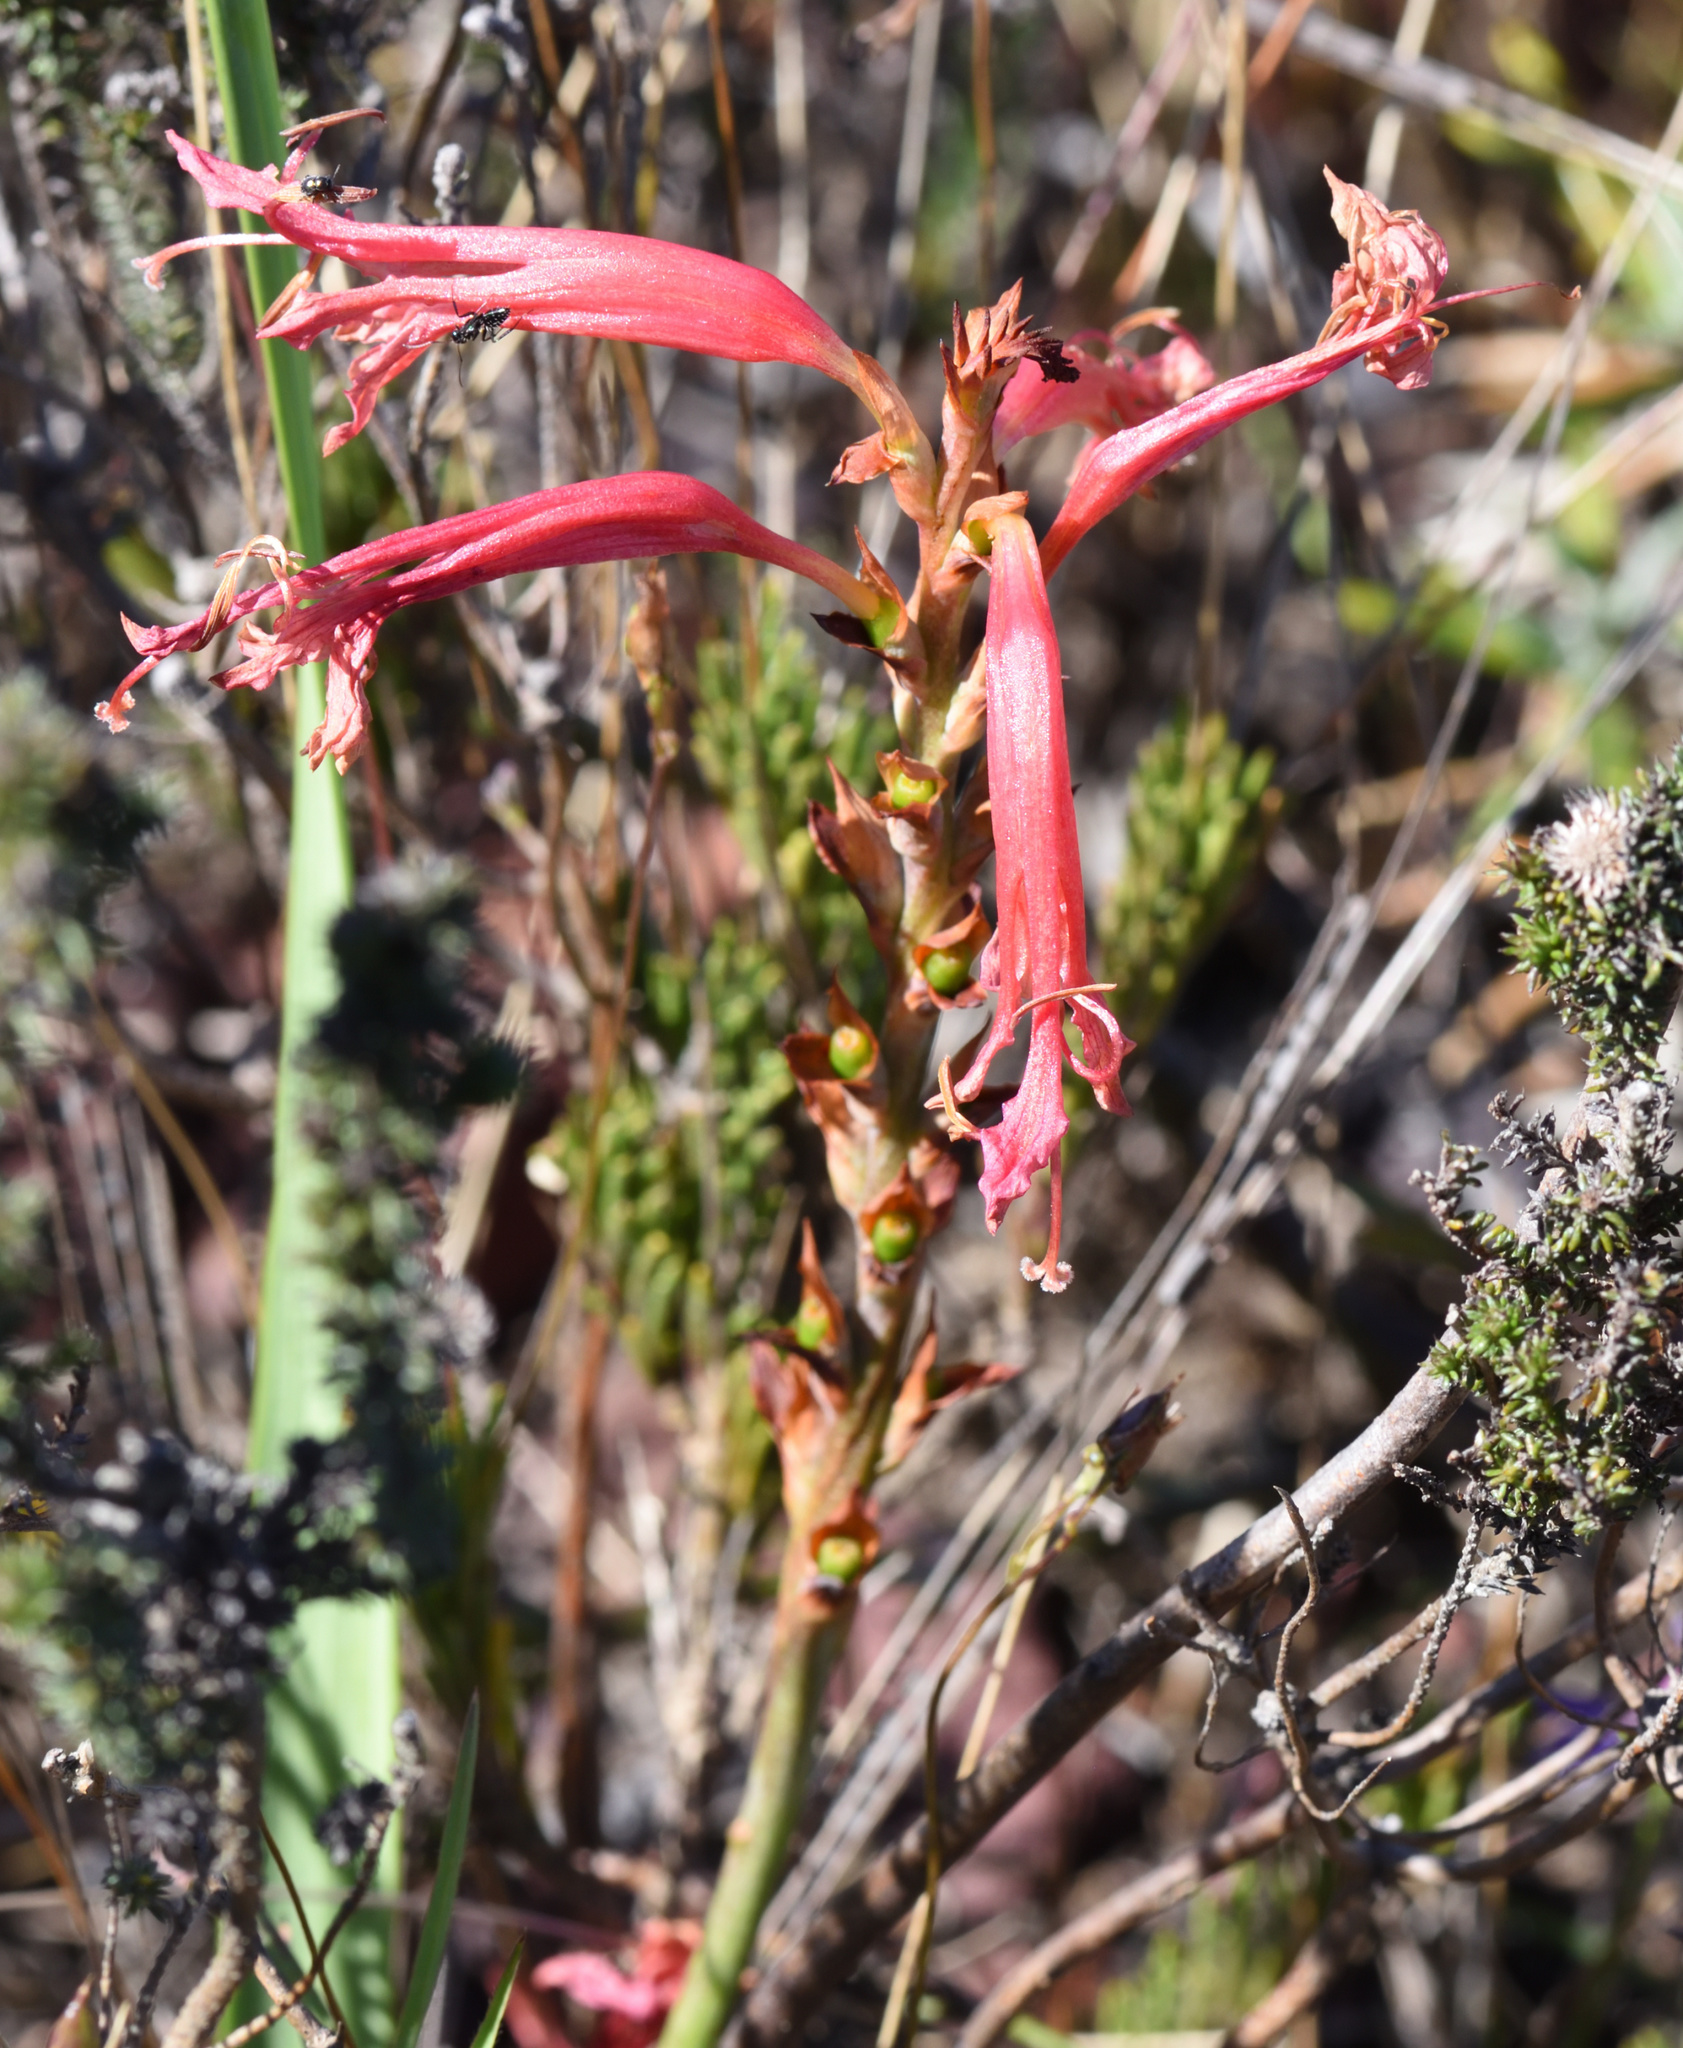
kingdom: Plantae
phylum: Tracheophyta
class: Liliopsida
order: Asparagales
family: Iridaceae
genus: Tritoniopsis
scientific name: Tritoniopsis antholyza
